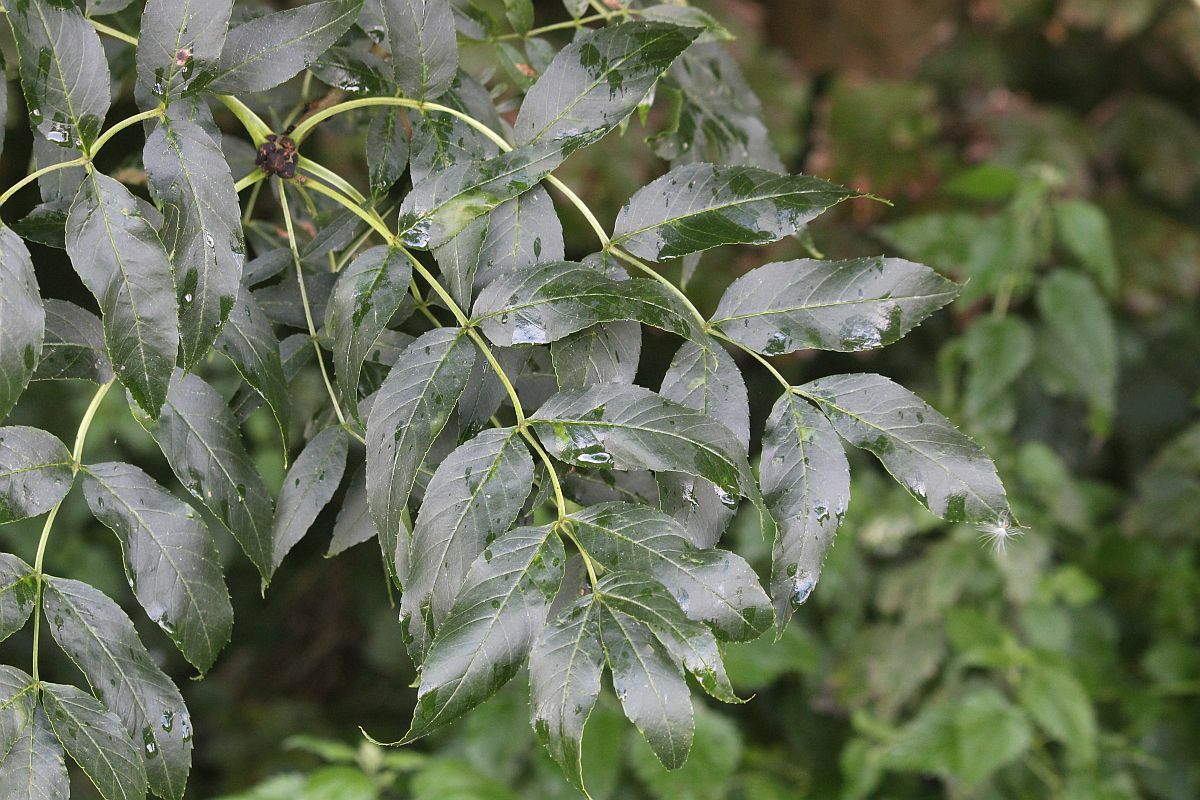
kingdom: Plantae
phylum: Tracheophyta
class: Magnoliopsida
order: Lamiales
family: Oleaceae
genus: Fraxinus
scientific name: Fraxinus excelsior
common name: European ash
